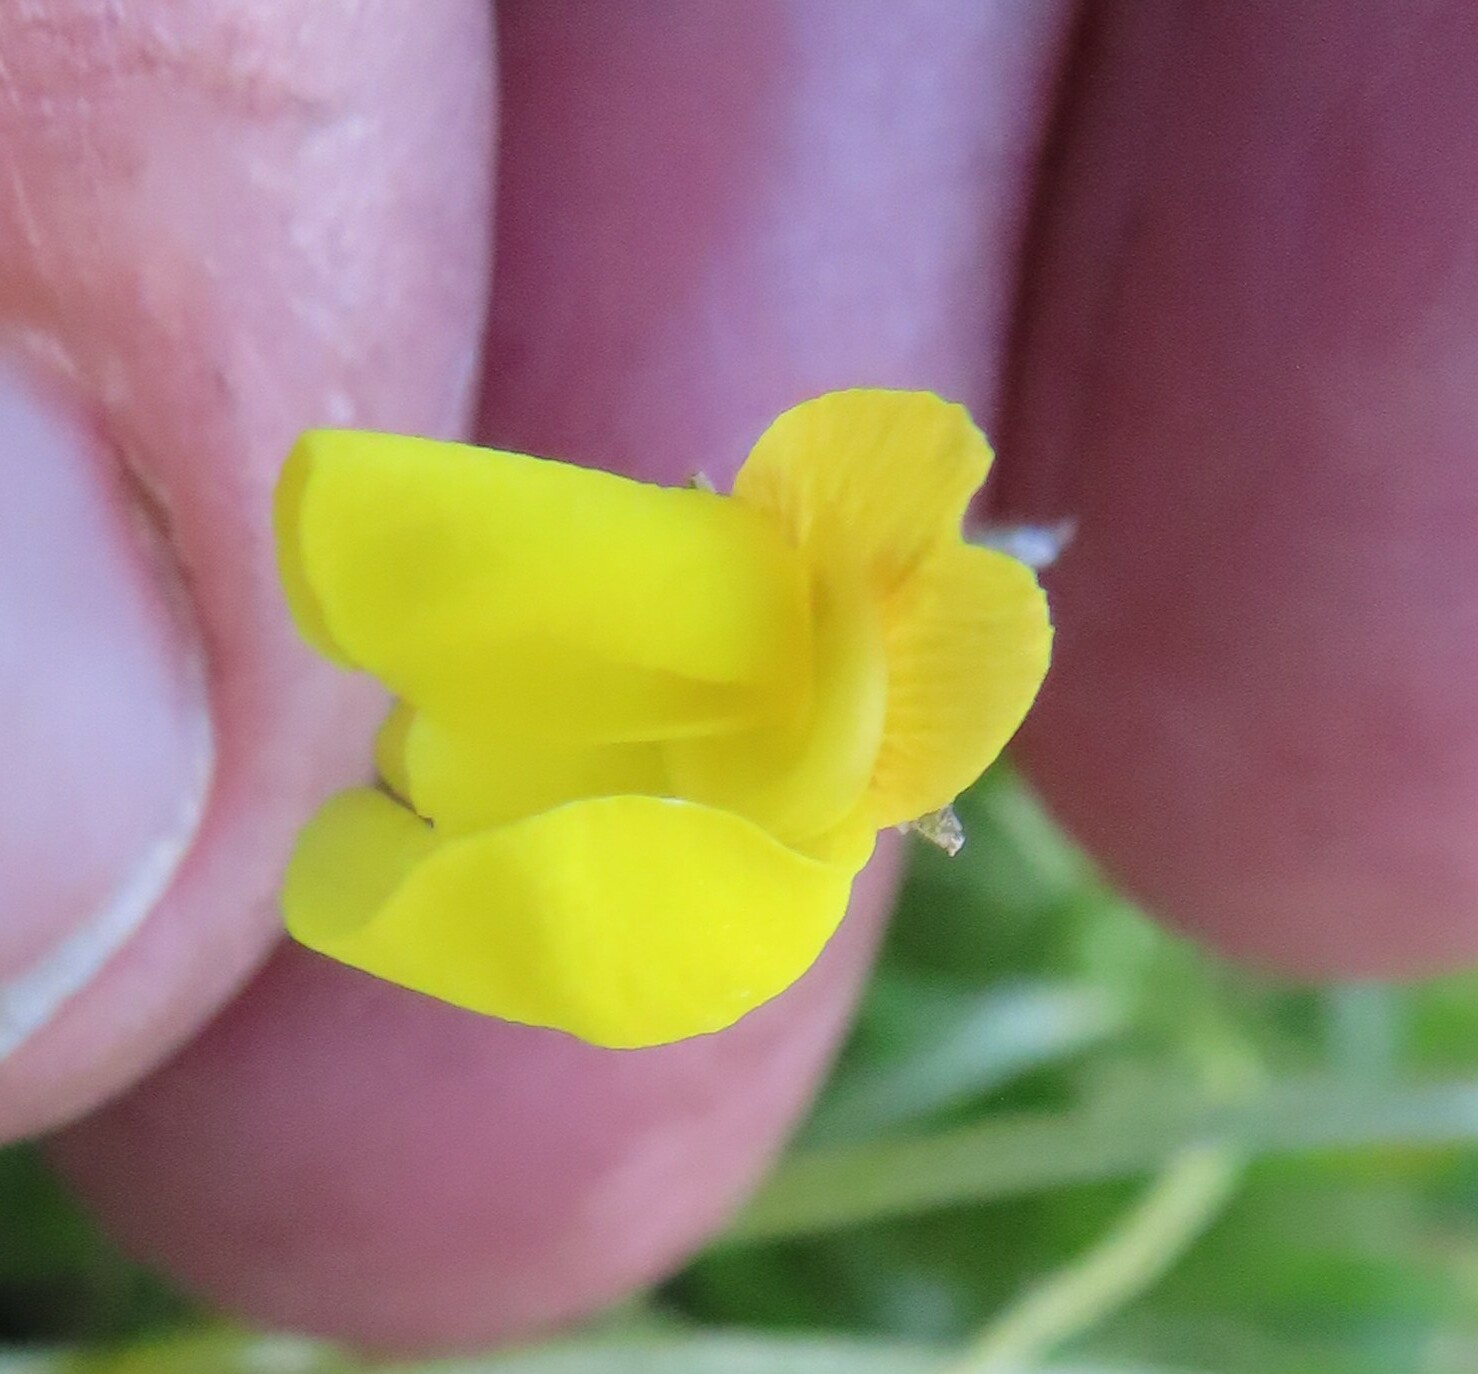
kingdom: Plantae
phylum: Tracheophyta
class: Magnoliopsida
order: Fabales
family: Fabaceae
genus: Lebeckia
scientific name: Lebeckia wrightii
